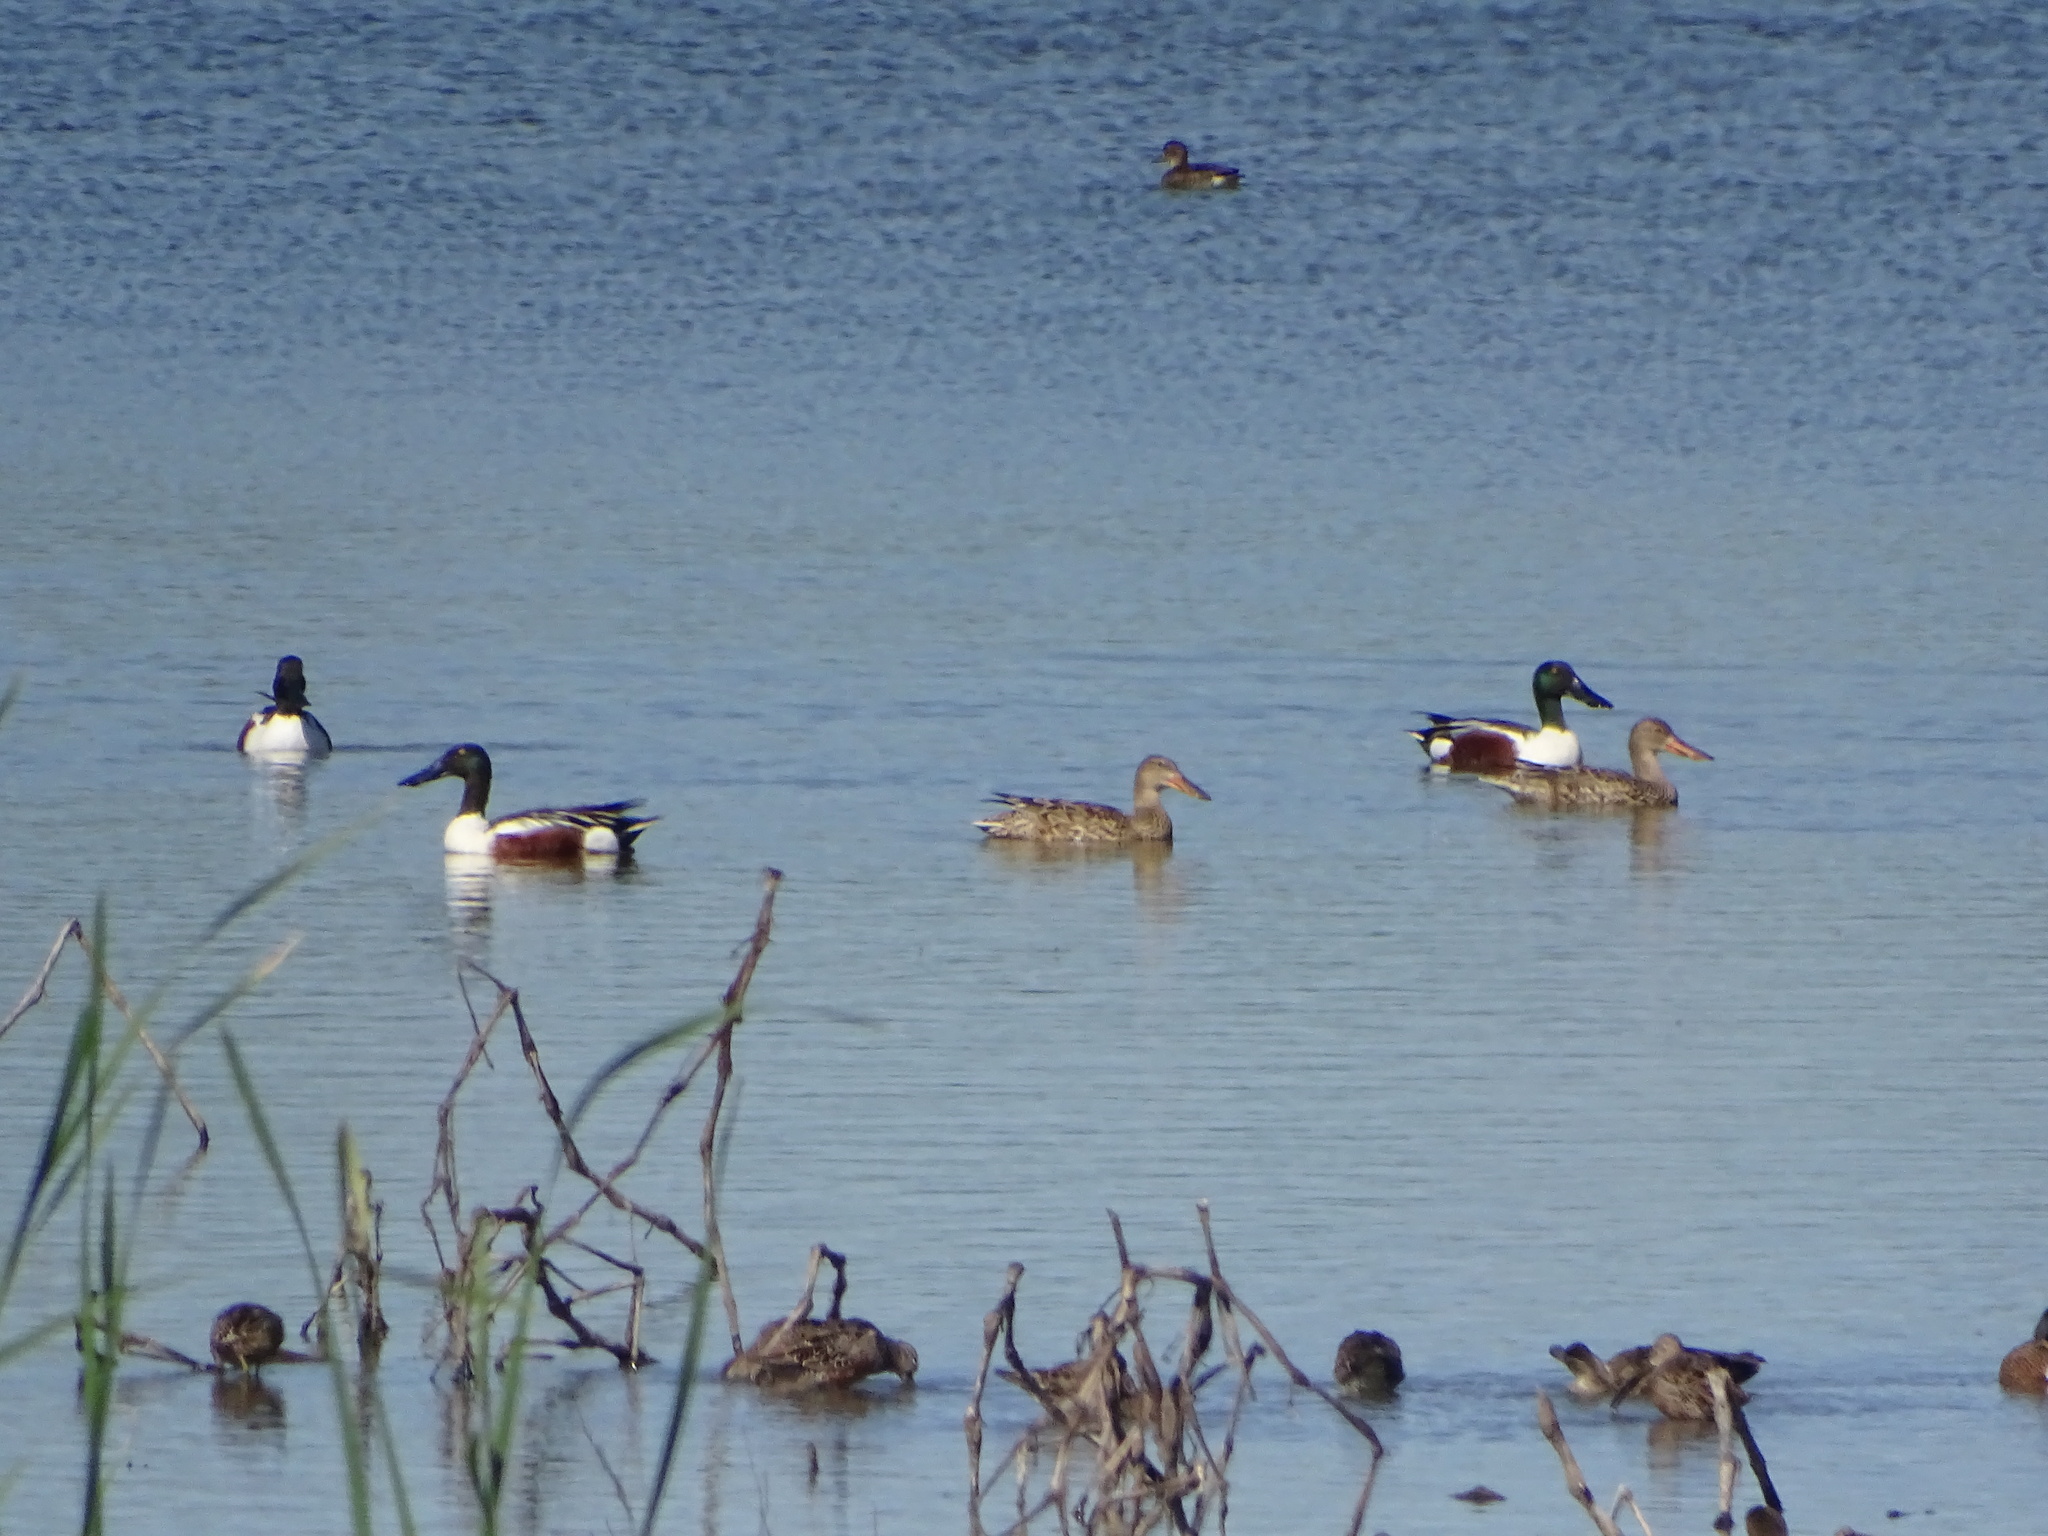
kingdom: Animalia
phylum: Chordata
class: Aves
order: Anseriformes
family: Anatidae
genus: Spatula
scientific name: Spatula clypeata
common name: Northern shoveler
